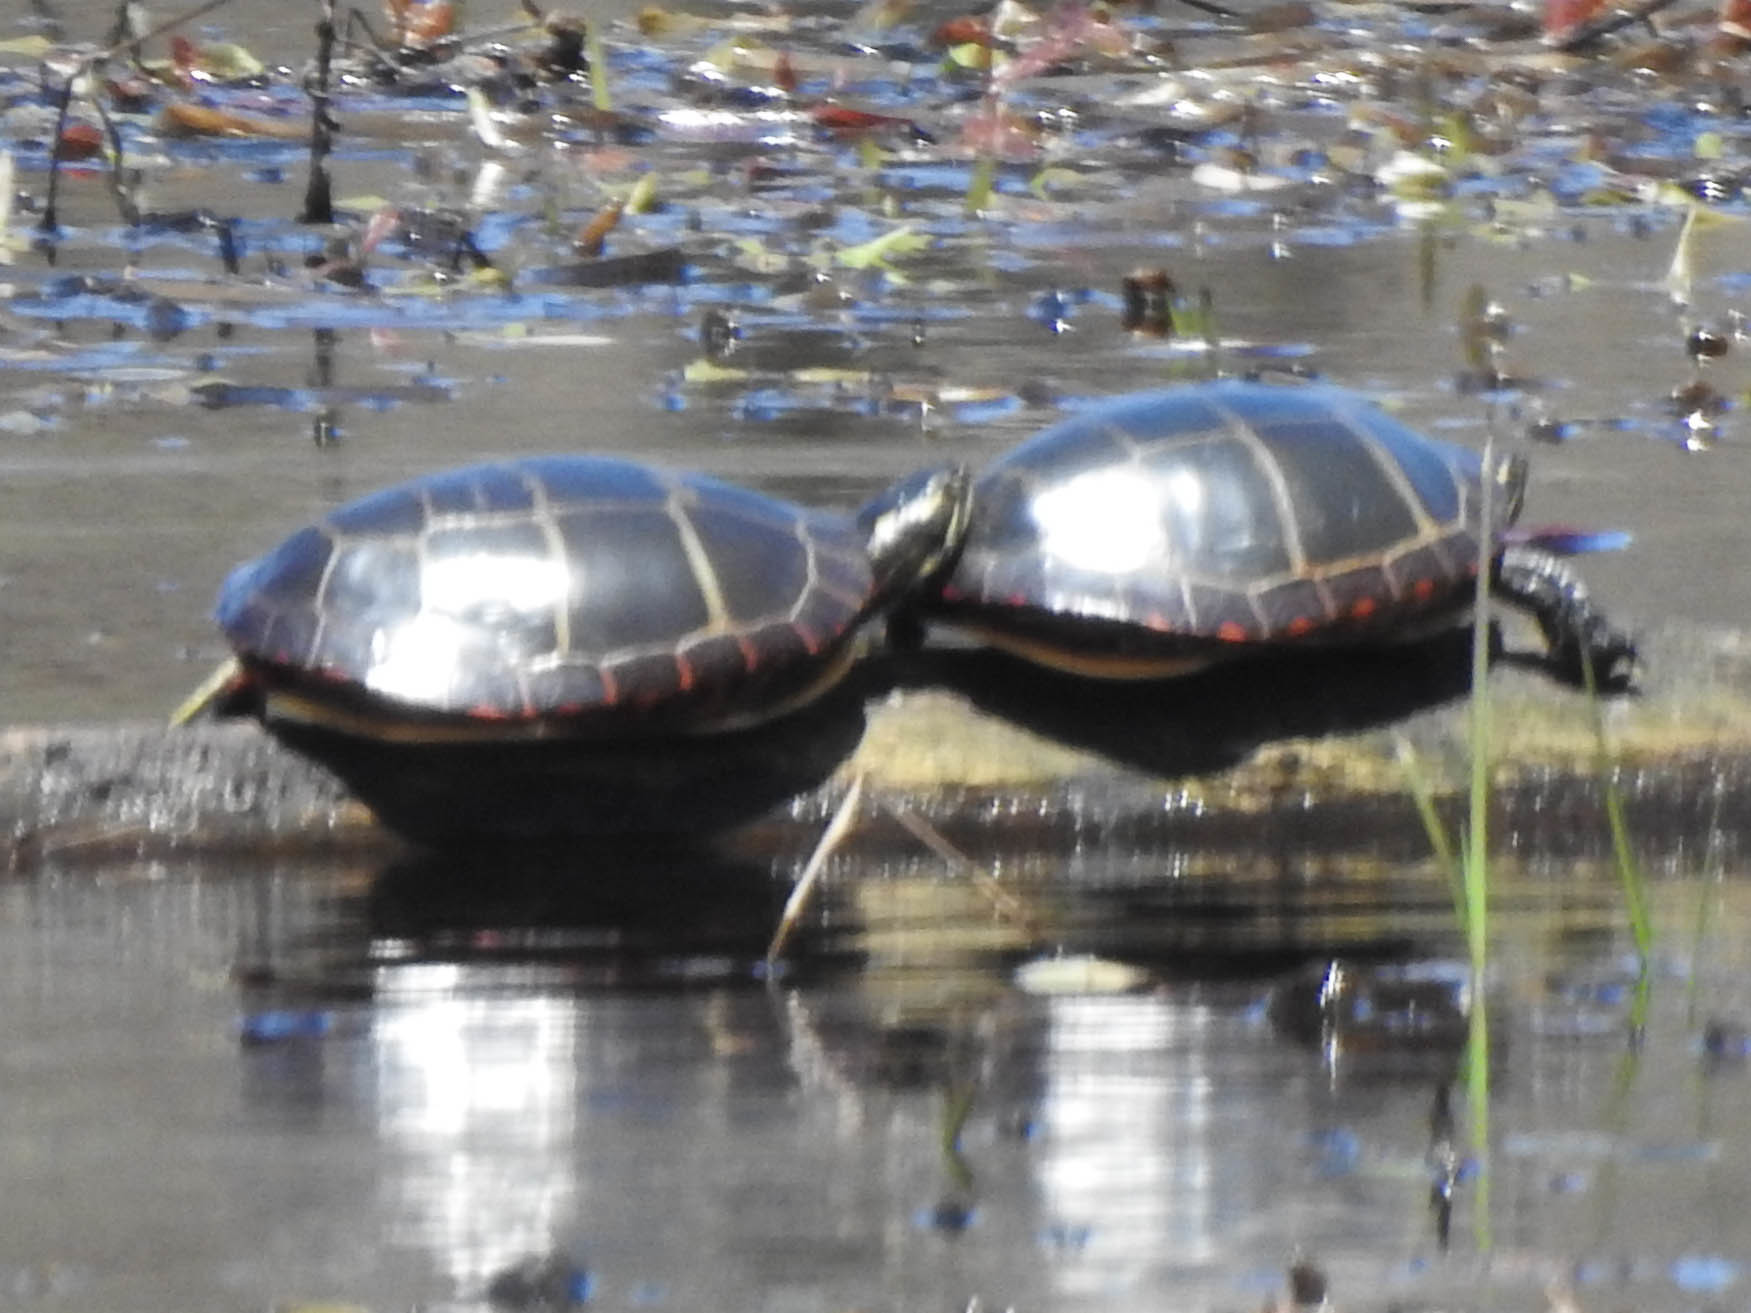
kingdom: Animalia
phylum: Chordata
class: Testudines
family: Emydidae
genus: Chrysemys
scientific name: Chrysemys picta
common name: Painted turtle
